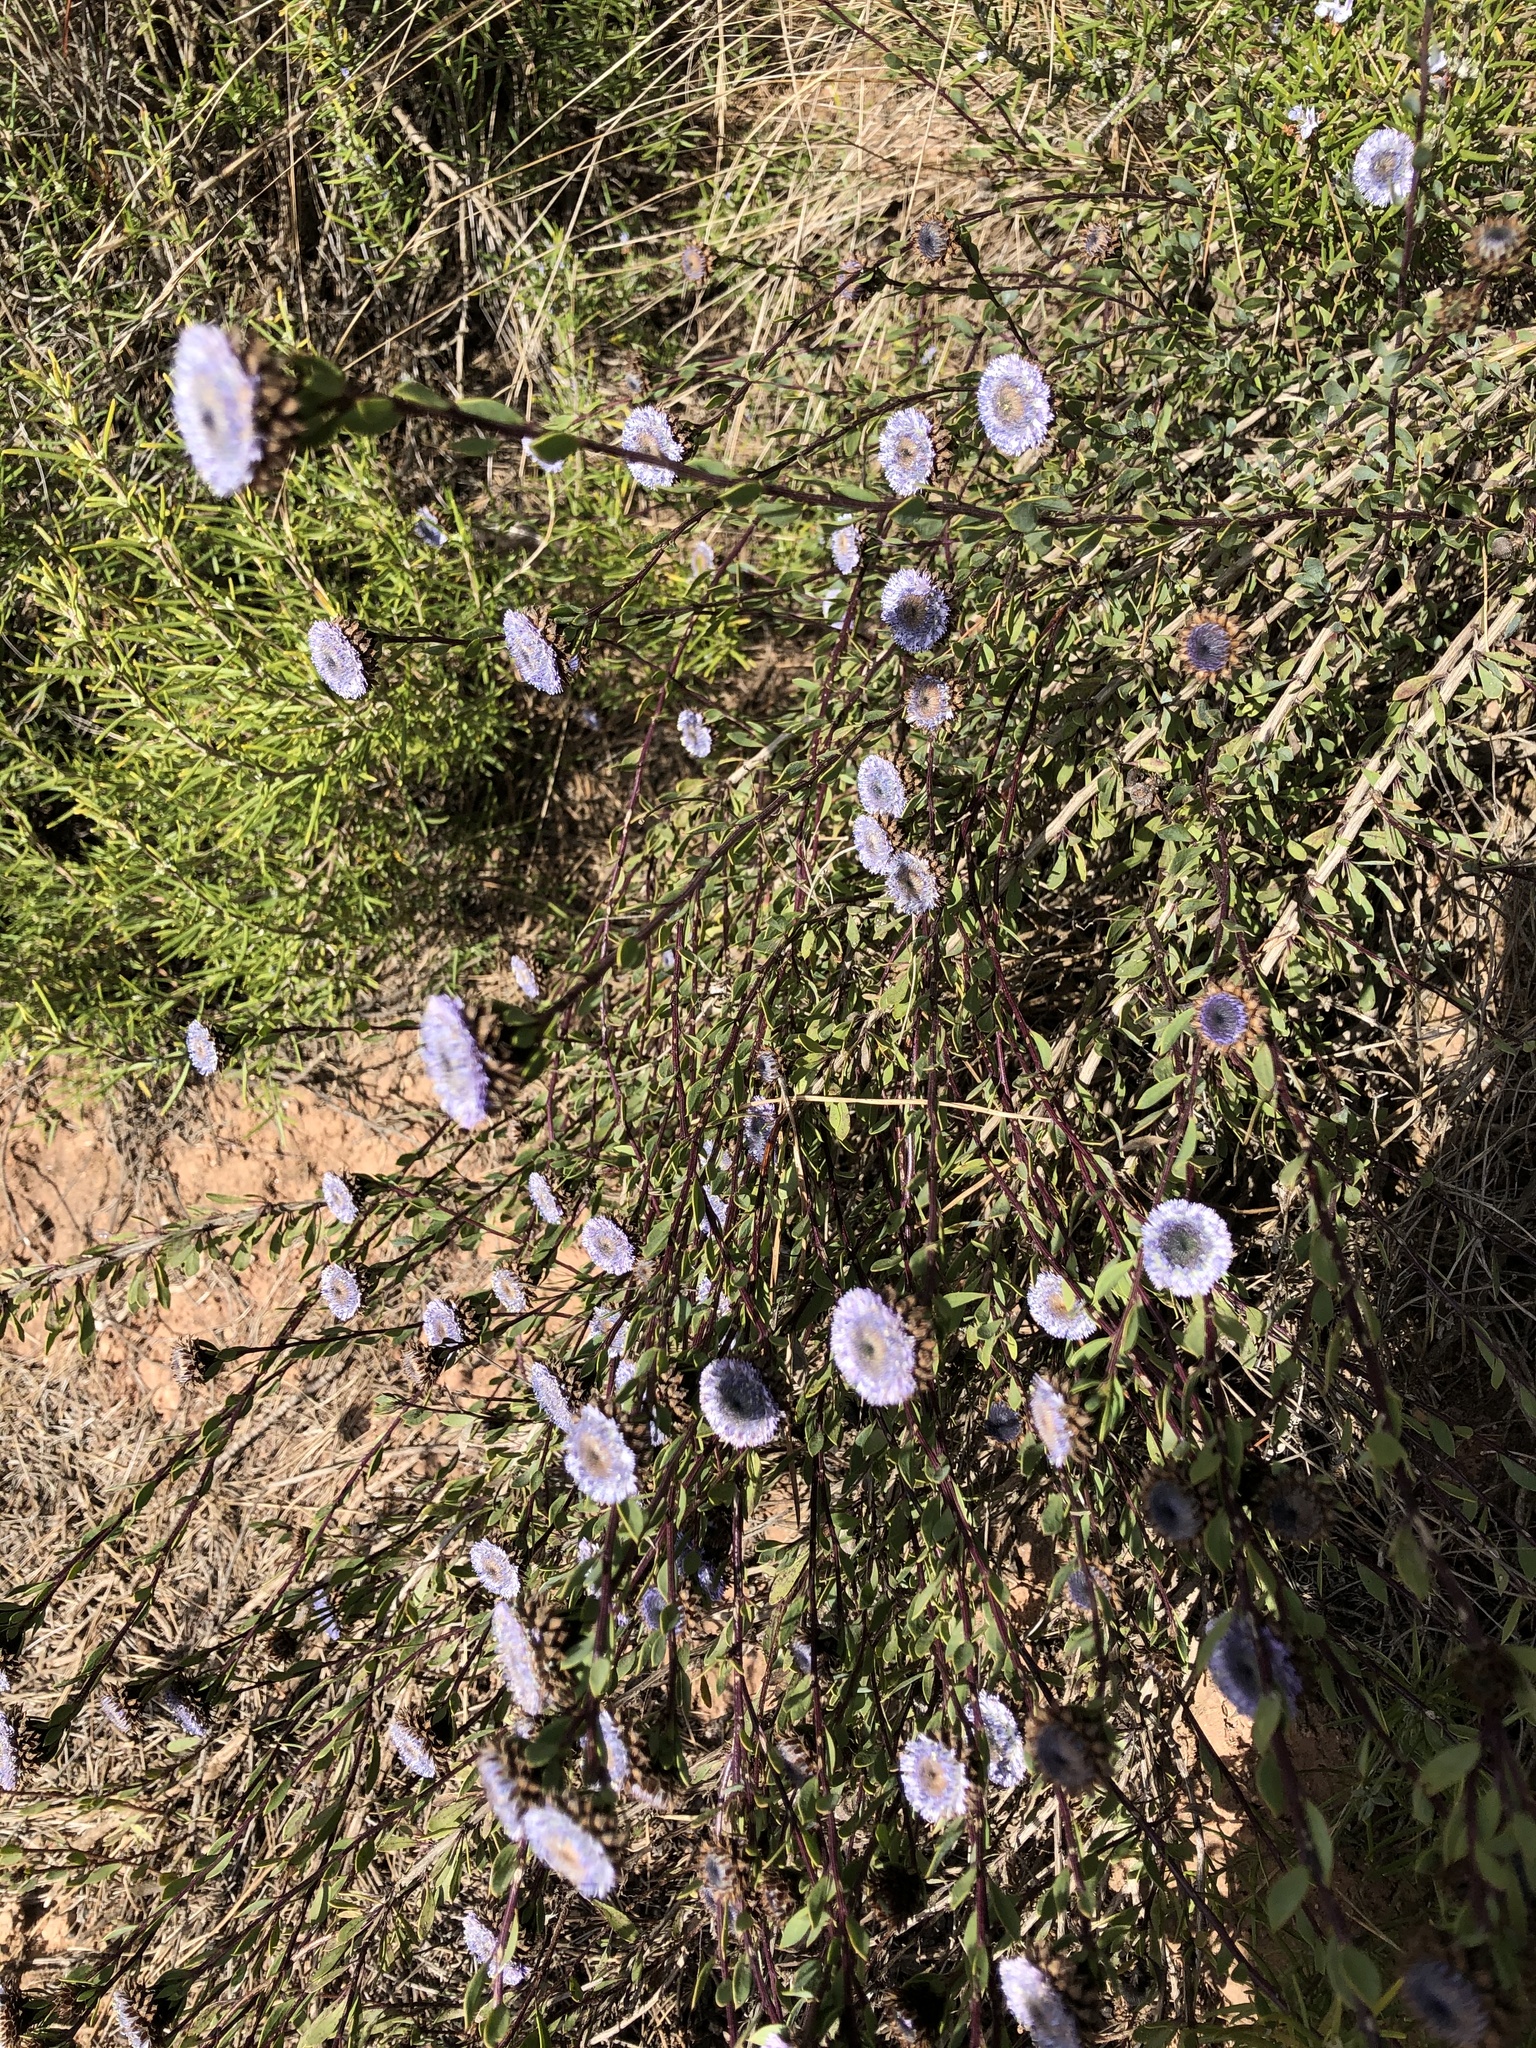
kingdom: Plantae
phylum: Tracheophyta
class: Magnoliopsida
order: Lamiales
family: Plantaginaceae
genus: Globularia
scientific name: Globularia alypum
